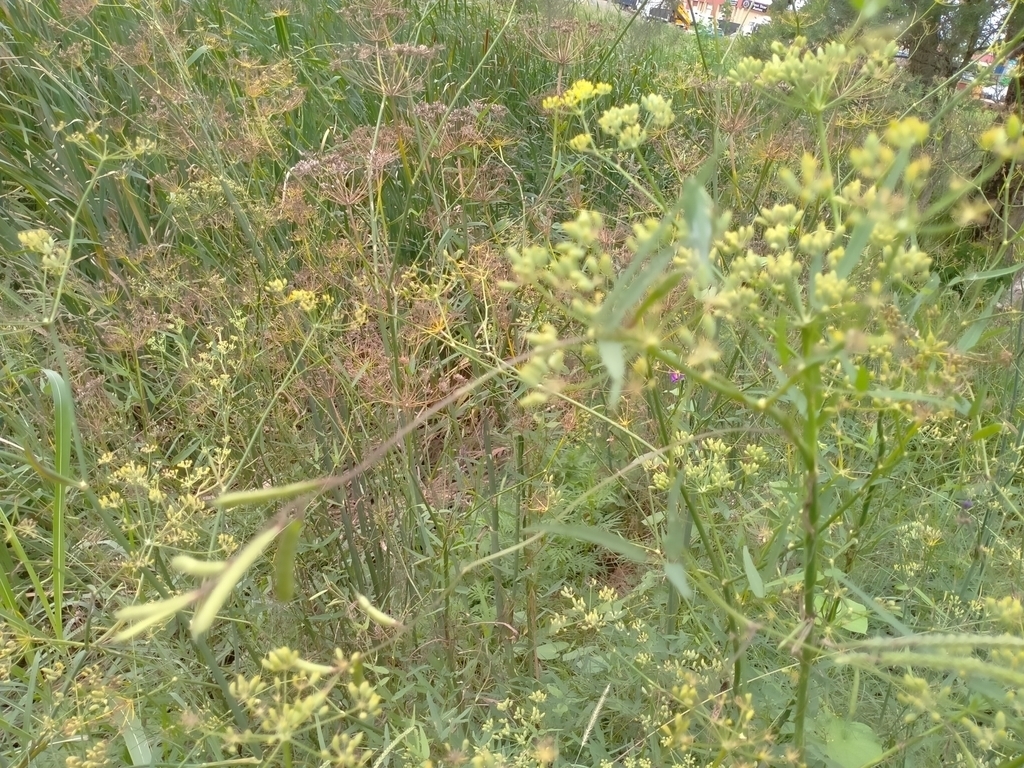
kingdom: Plantae
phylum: Tracheophyta
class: Magnoliopsida
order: Apiales
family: Apiaceae
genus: Foeniculum
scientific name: Foeniculum vulgare
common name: Fennel
